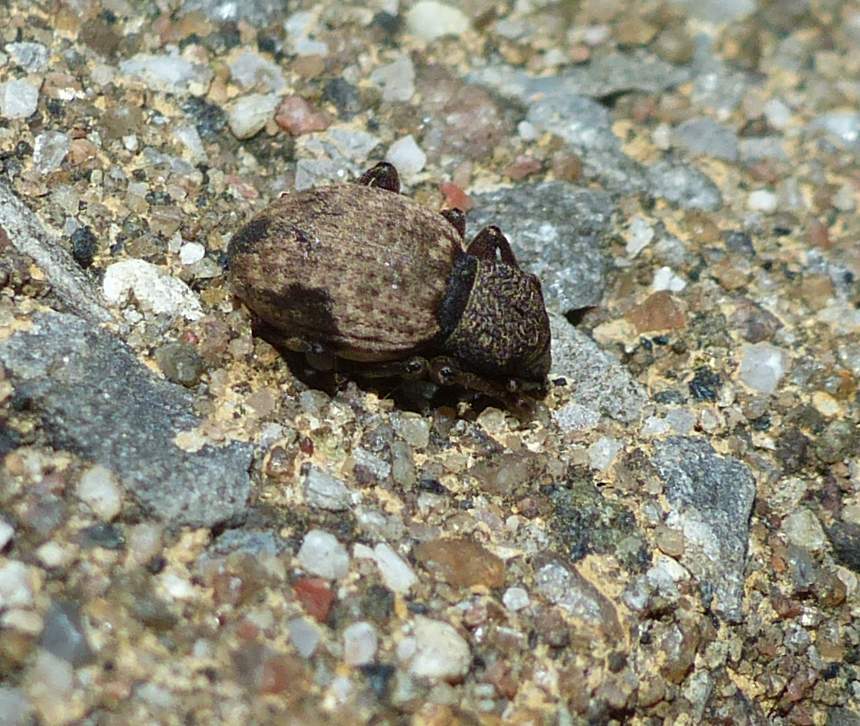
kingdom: Animalia
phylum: Arthropoda
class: Insecta
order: Coleoptera
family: Curculionidae
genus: Otiorhynchus
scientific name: Otiorhynchus raucus
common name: Weevil
